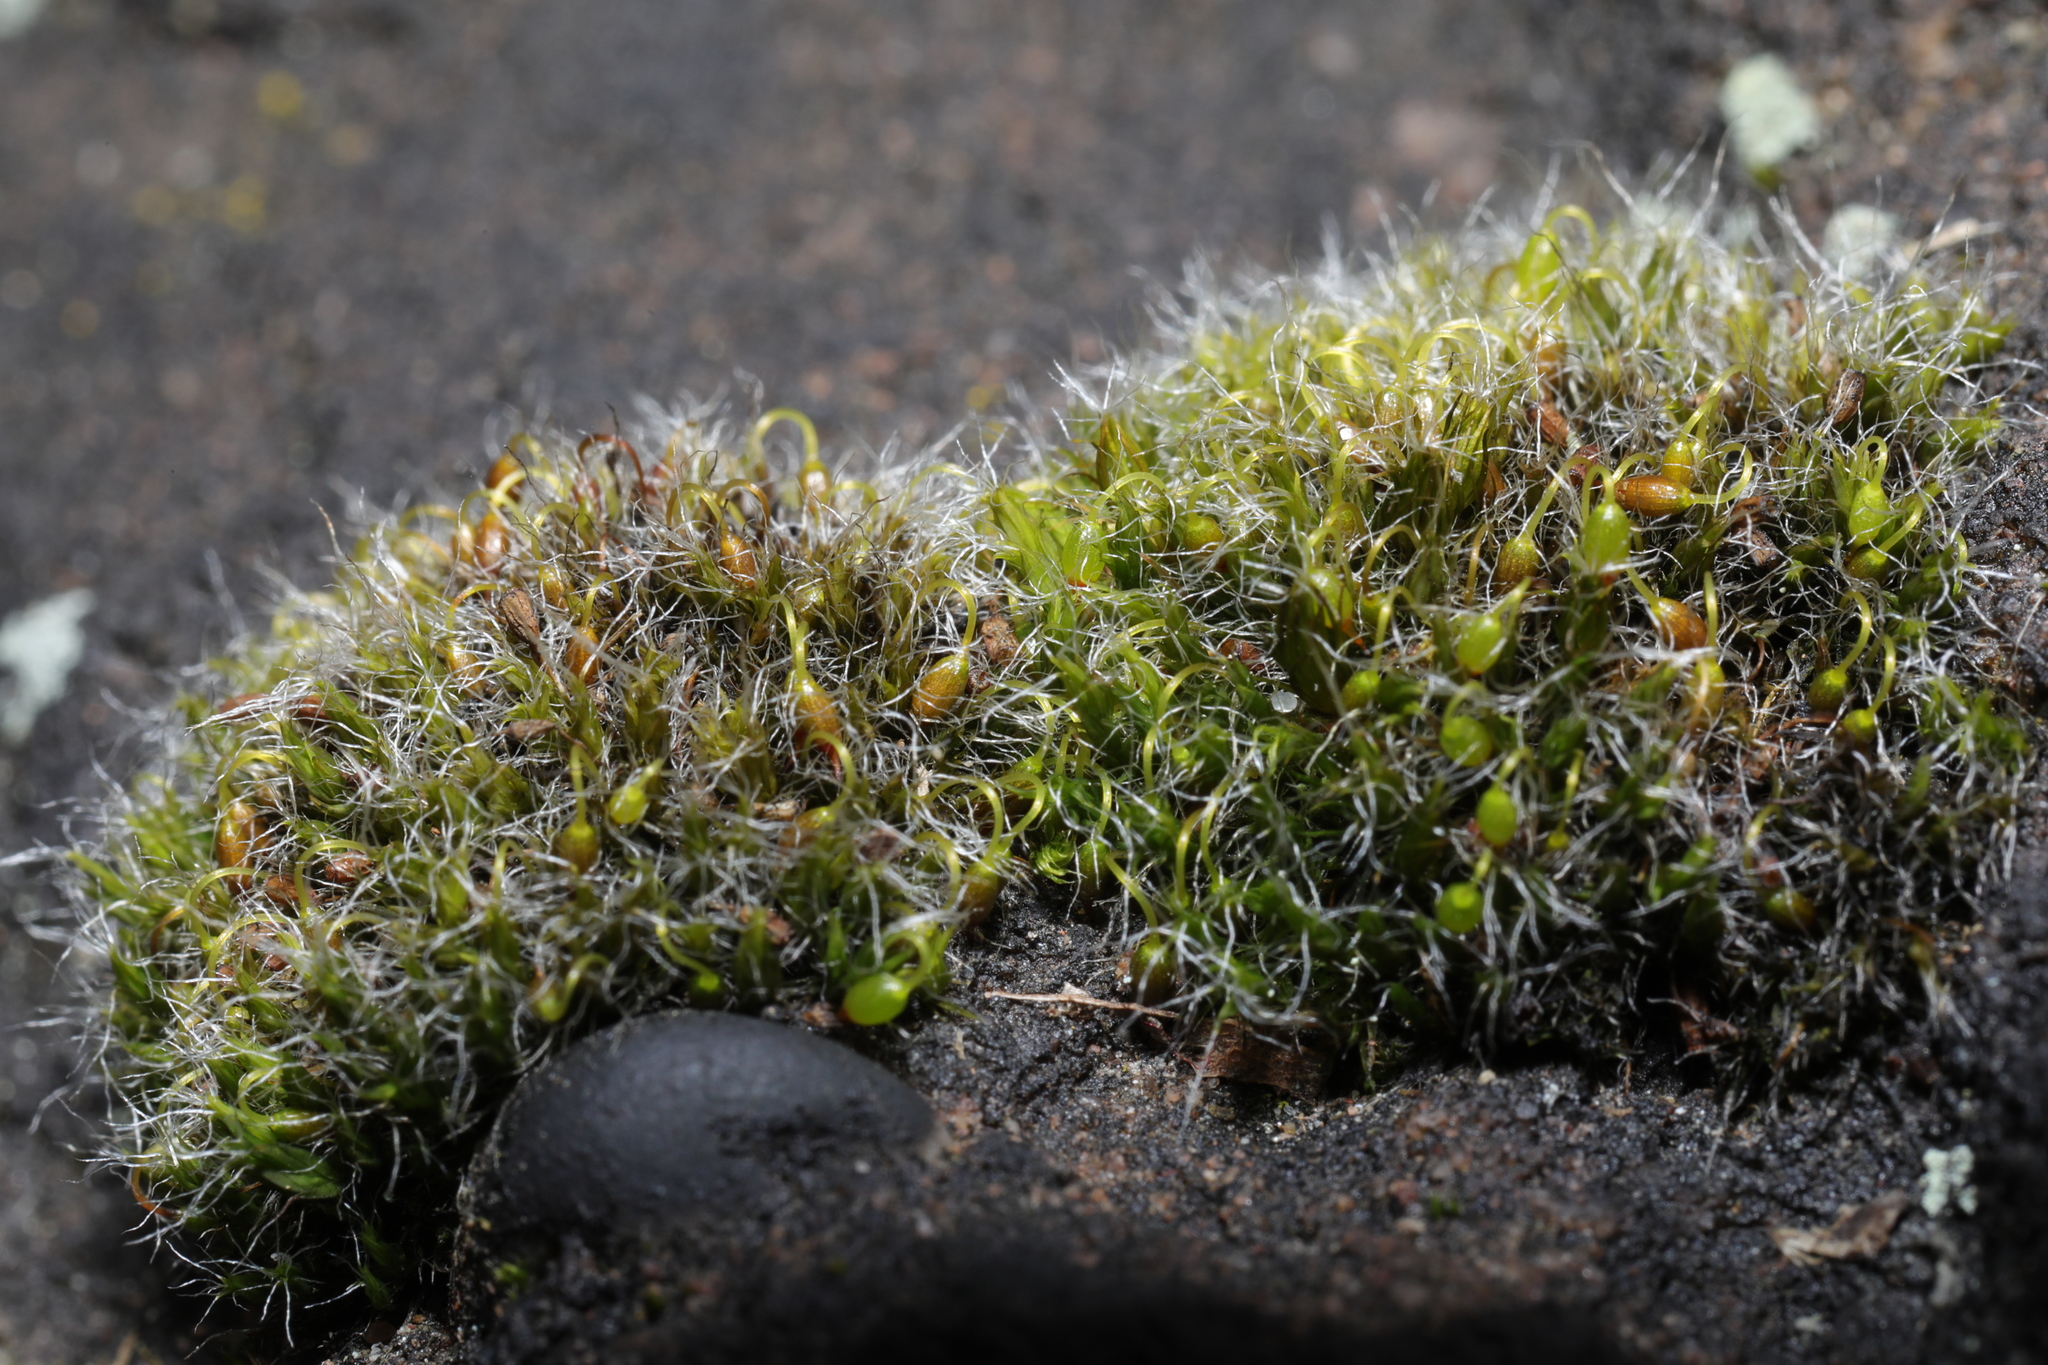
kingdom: Plantae
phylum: Bryophyta
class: Bryopsida
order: Grimmiales
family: Grimmiaceae
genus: Grimmia
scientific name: Grimmia pulvinata
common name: Grey-cushioned grimmia
